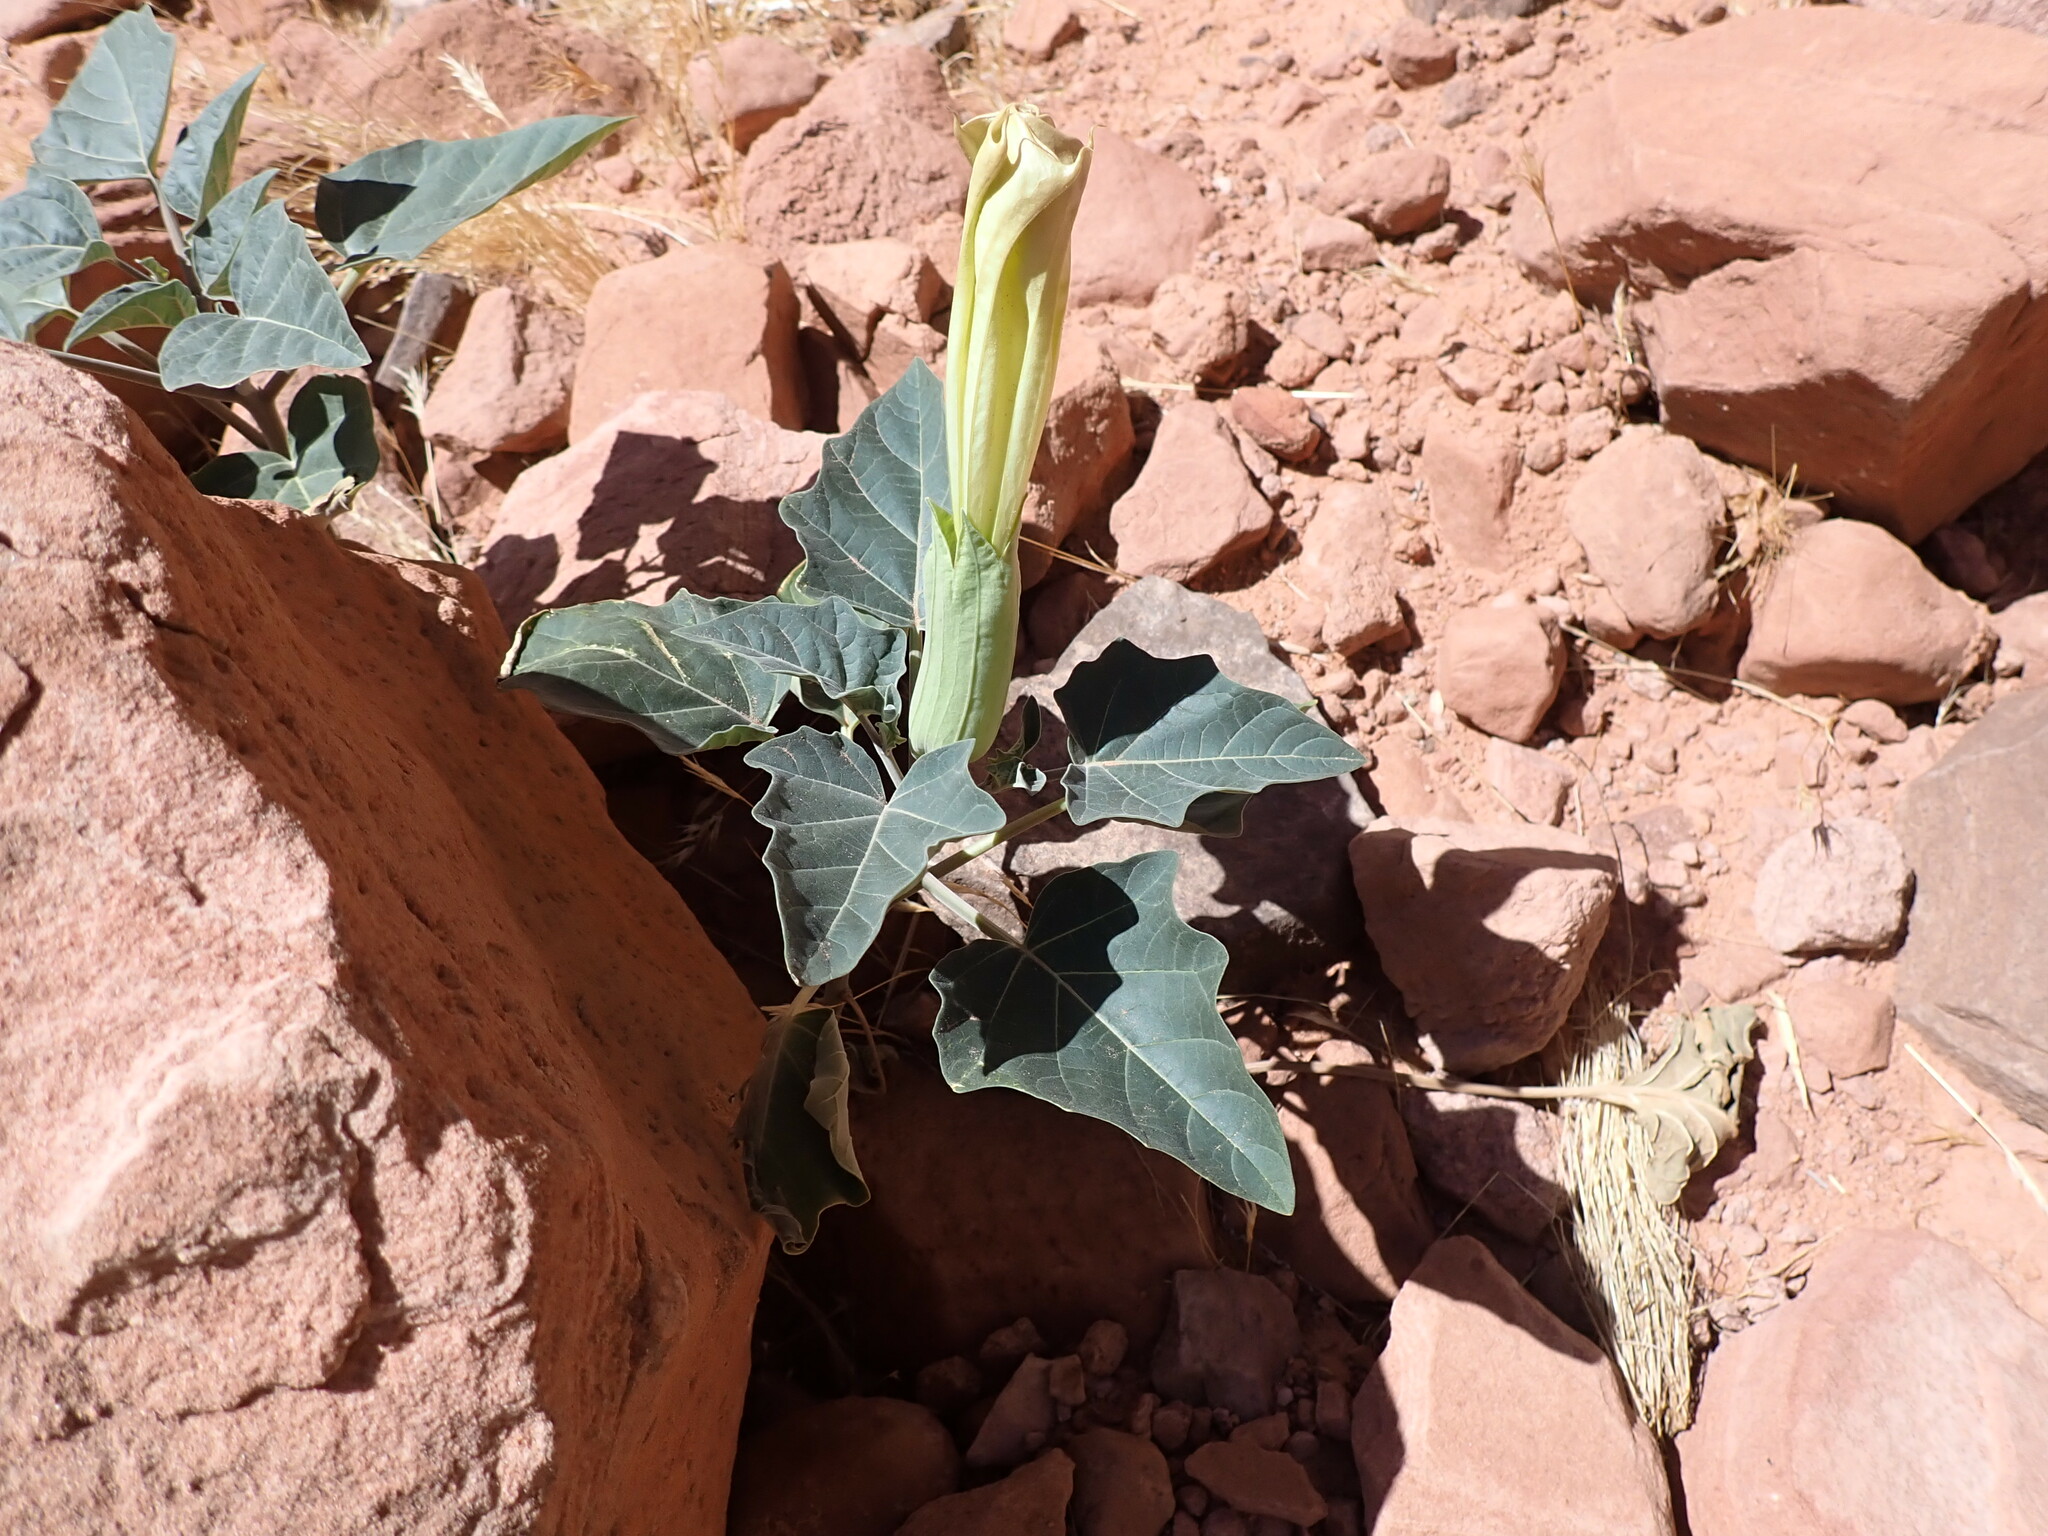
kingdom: Plantae
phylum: Tracheophyta
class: Magnoliopsida
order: Solanales
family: Solanaceae
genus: Datura
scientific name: Datura wrightii
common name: Sacred thorn-apple
